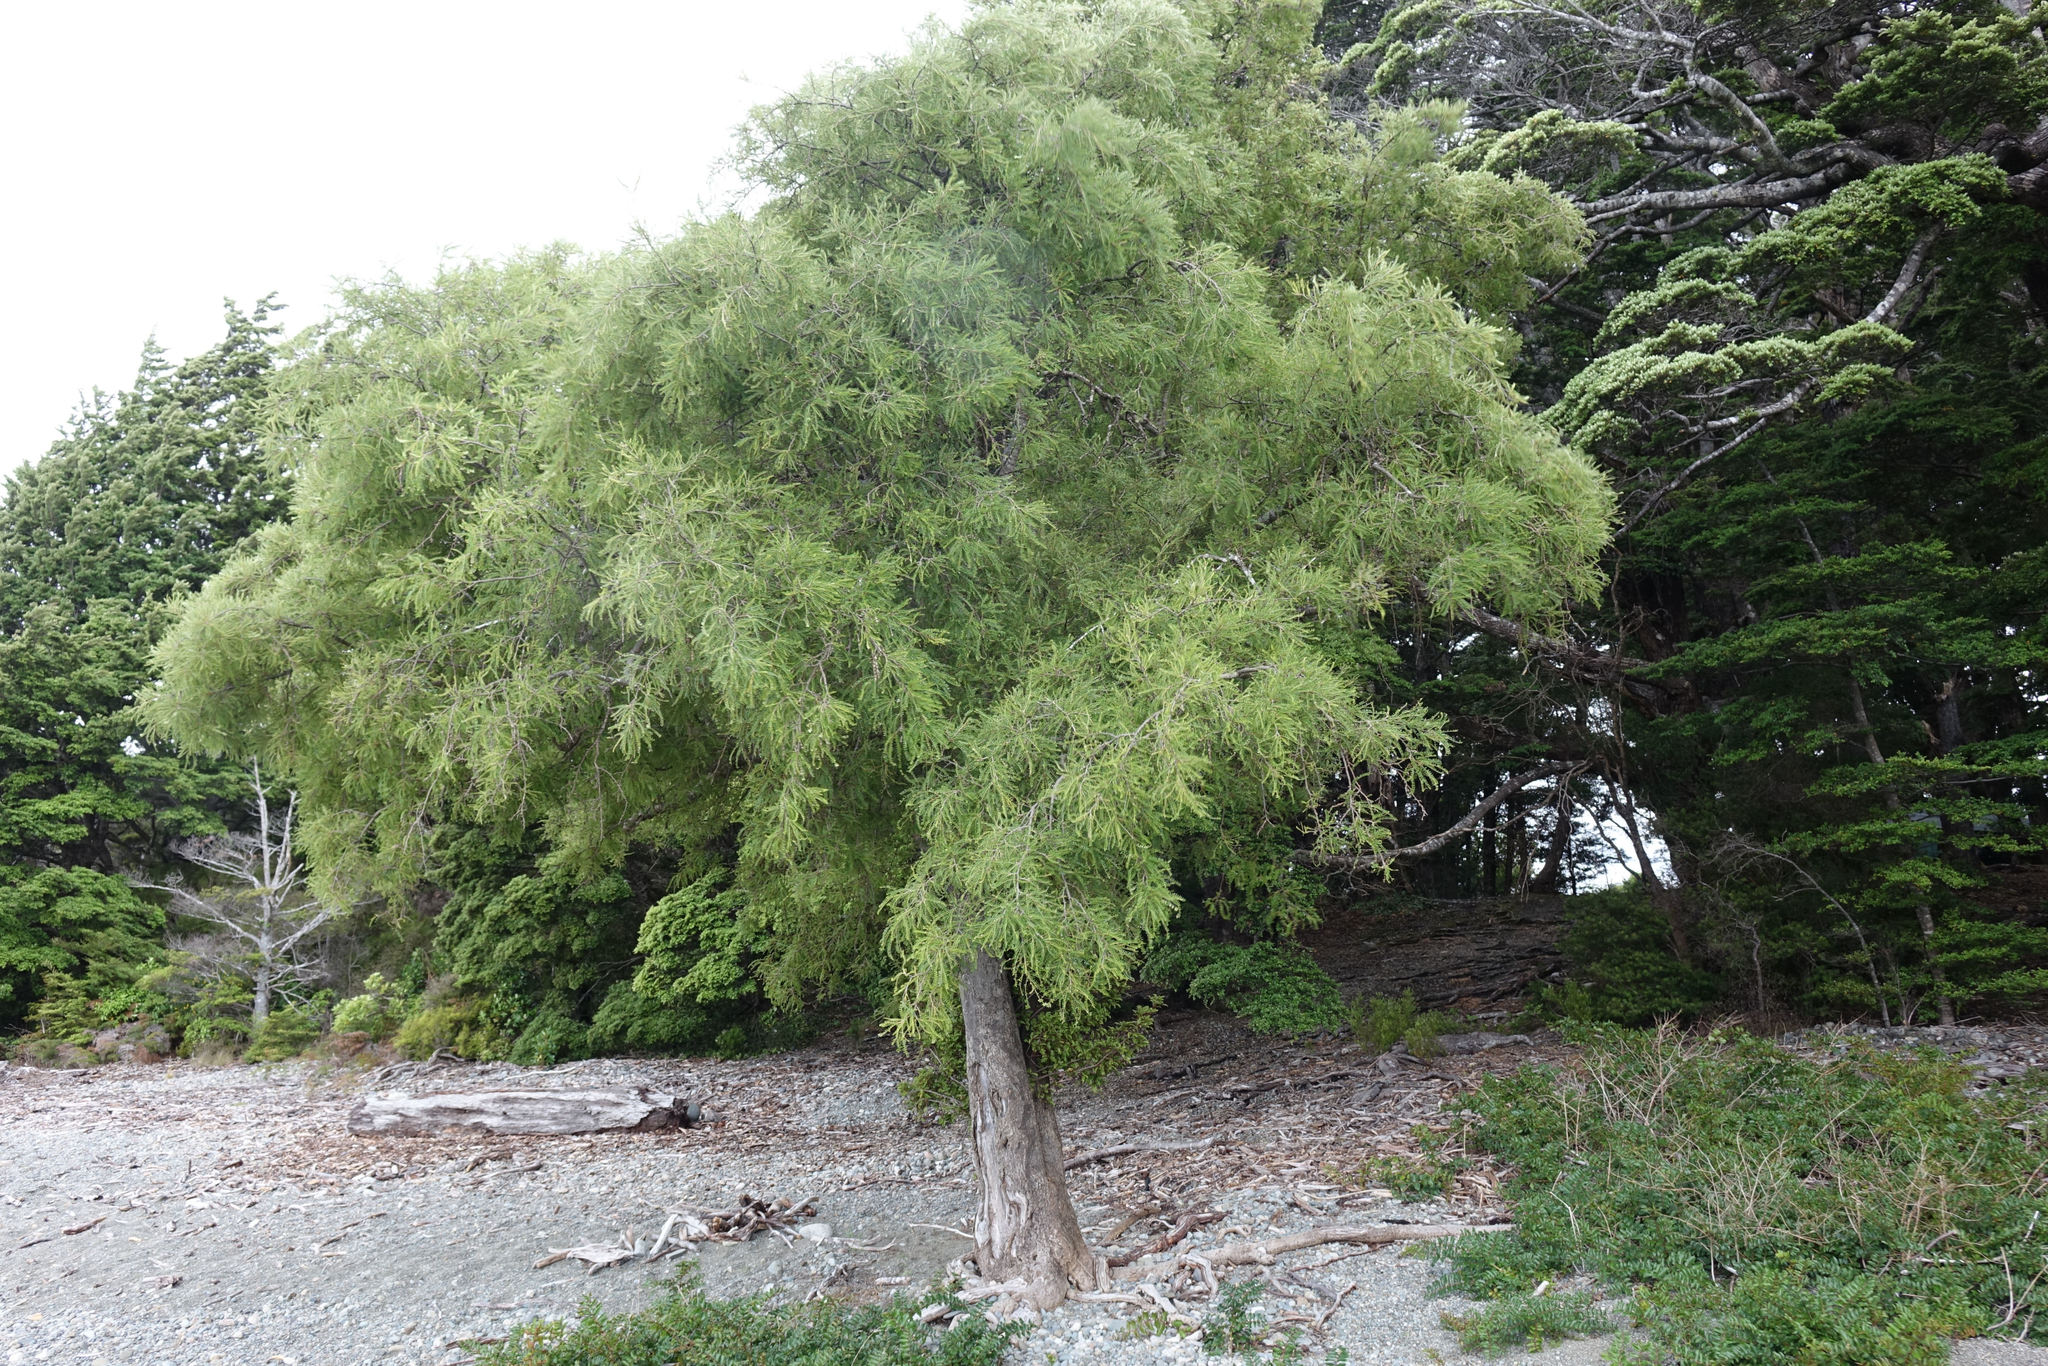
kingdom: Plantae
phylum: Tracheophyta
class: Magnoliopsida
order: Fabales
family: Fabaceae
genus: Sophora
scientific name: Sophora microphylla
